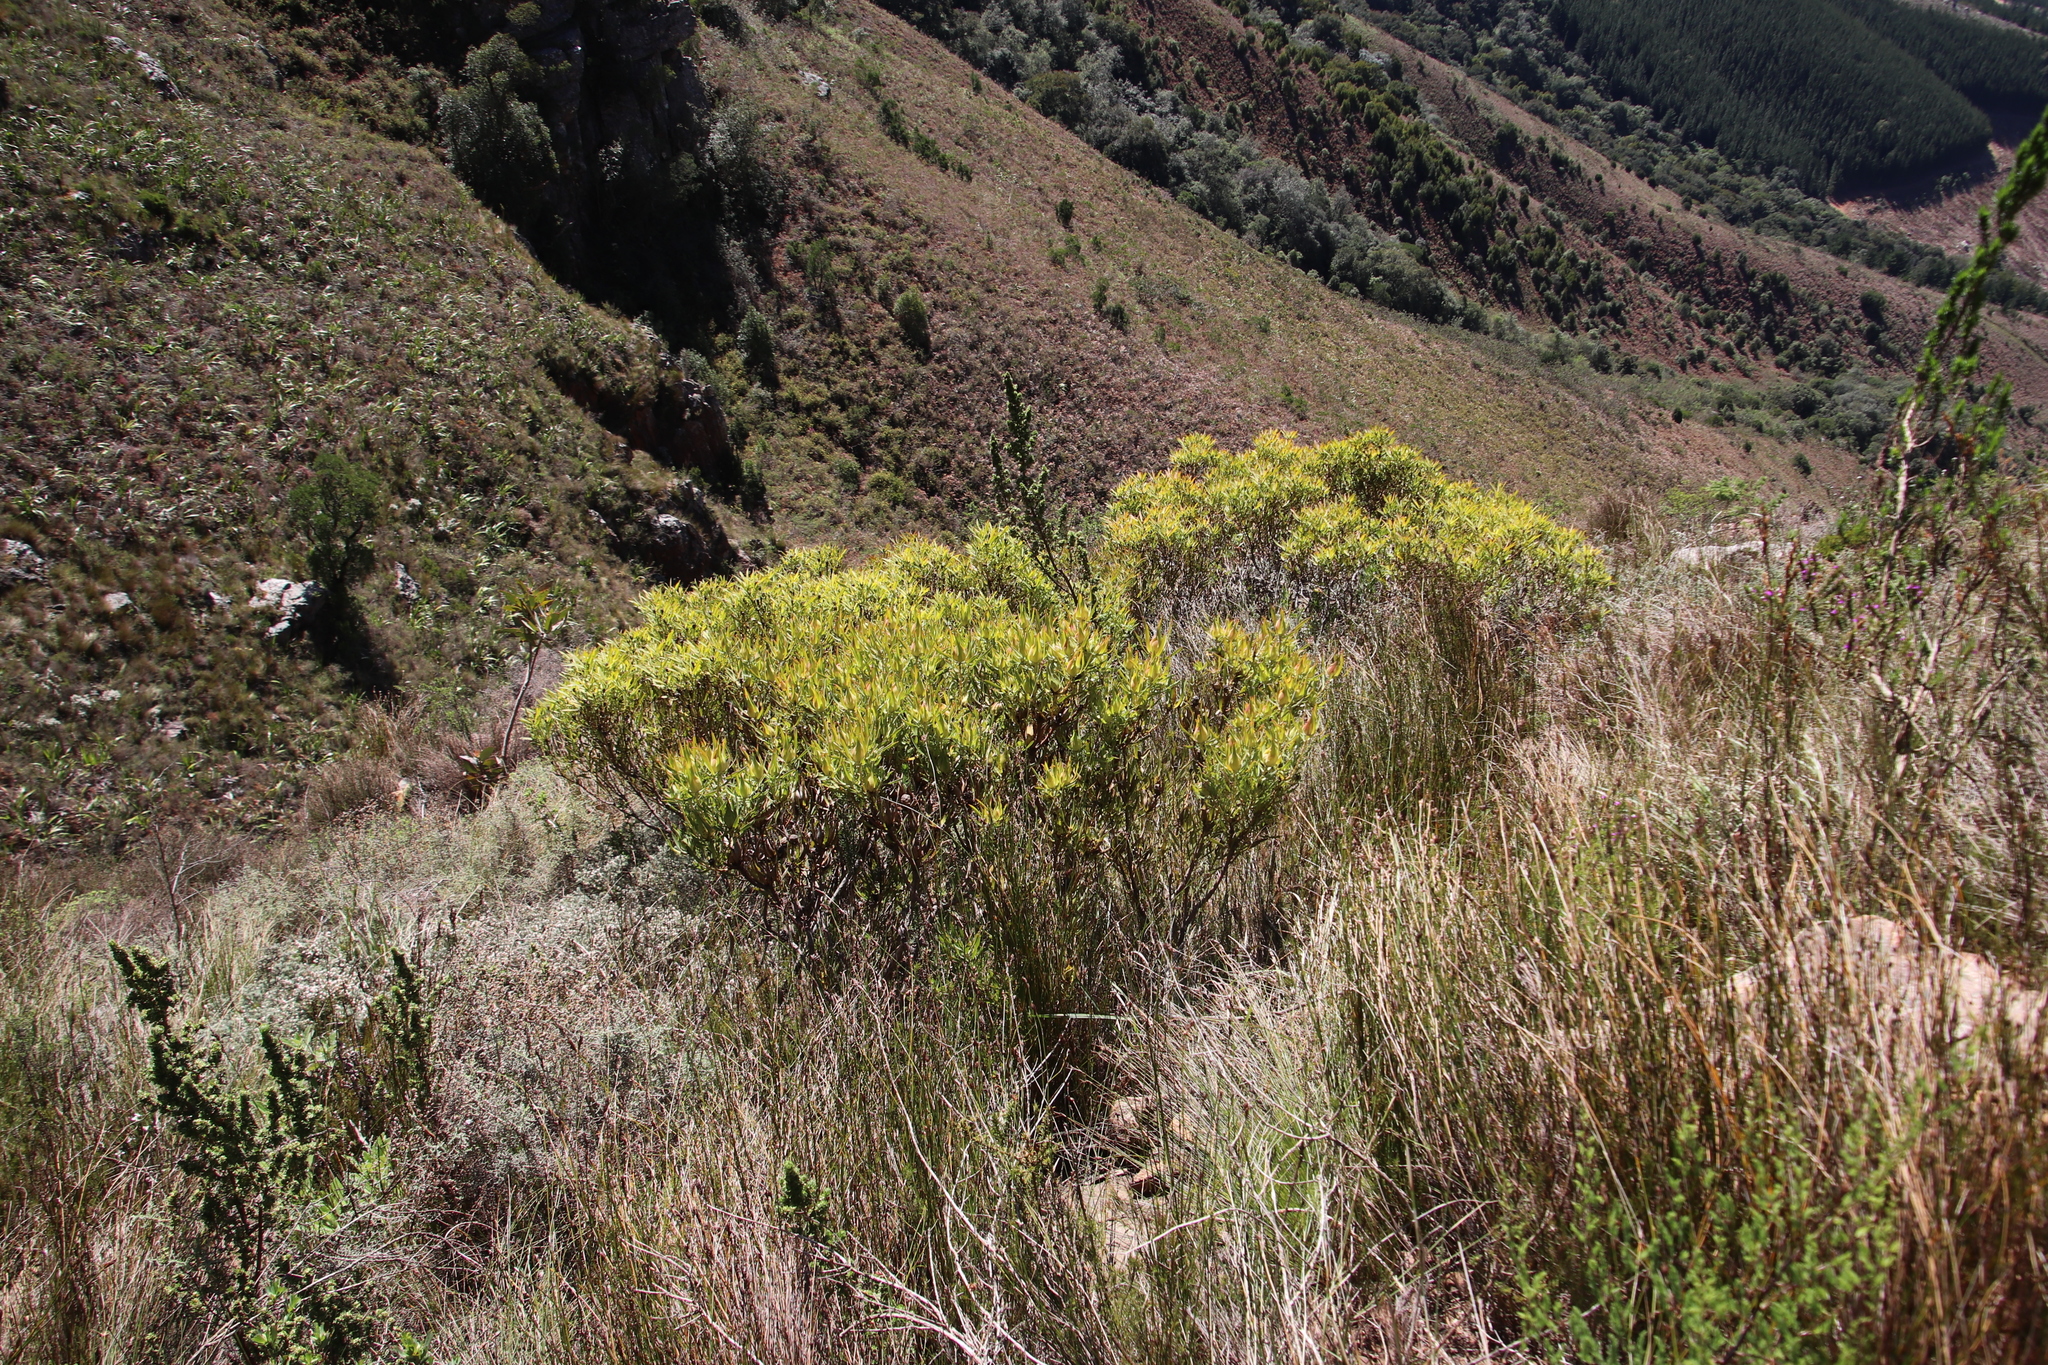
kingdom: Plantae
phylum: Tracheophyta
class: Magnoliopsida
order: Proteales
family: Proteaceae
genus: Leucadendron
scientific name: Leucadendron salignum
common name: Common sunshine conebush
